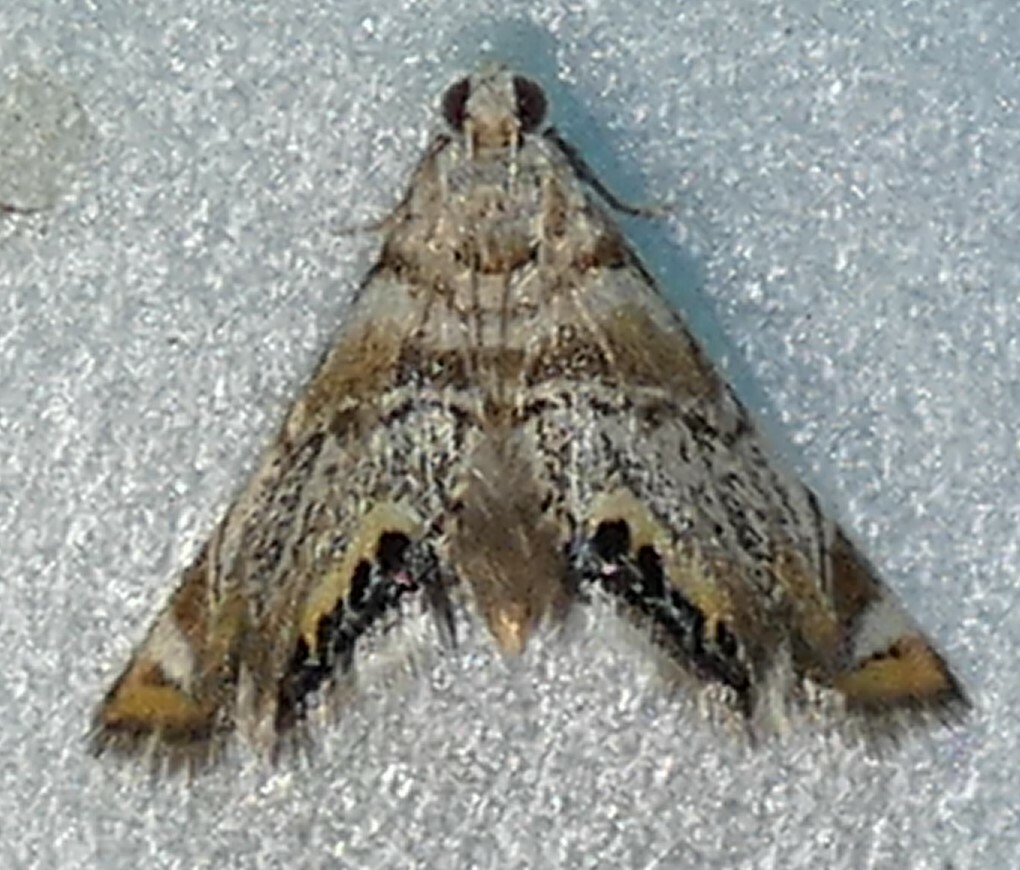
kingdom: Animalia
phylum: Arthropoda
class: Insecta
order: Lepidoptera
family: Crambidae
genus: Eoparargyractis
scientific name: Eoparargyractis irroratalis
